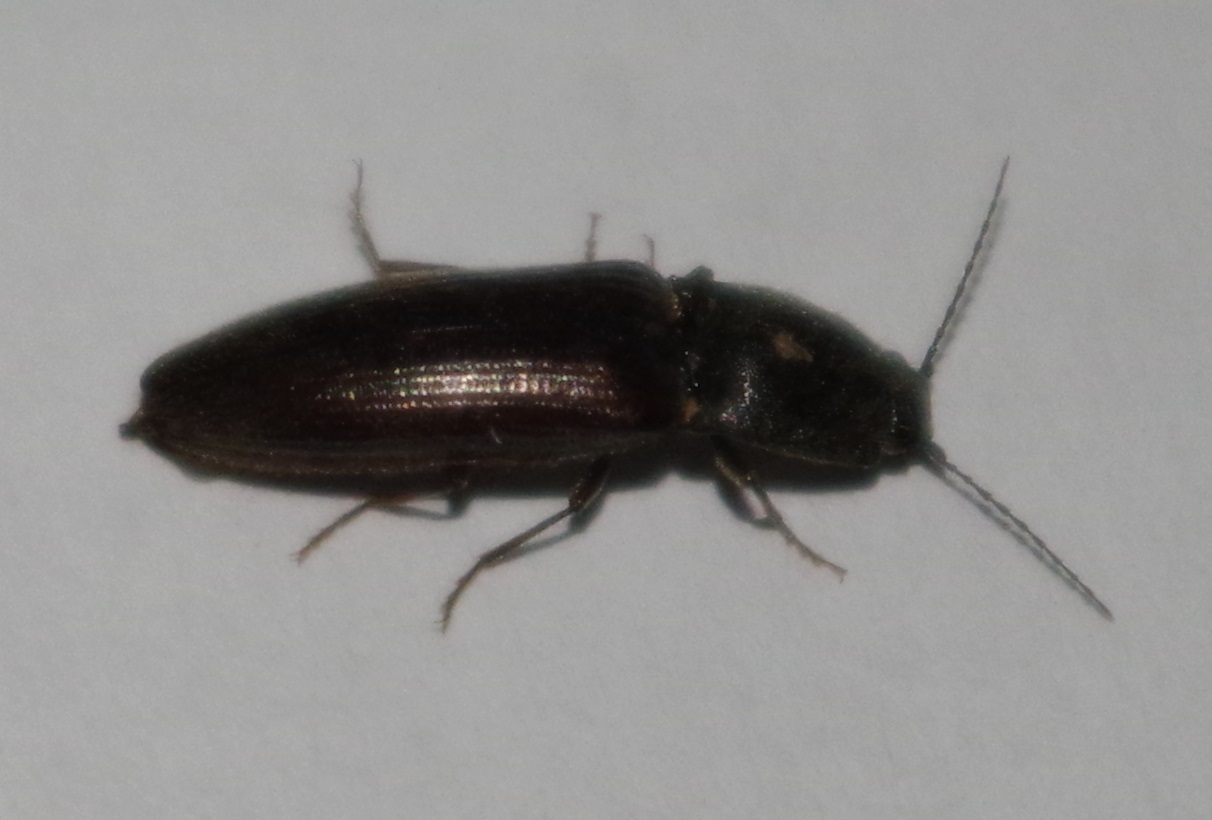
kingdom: Animalia
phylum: Arthropoda
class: Insecta
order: Coleoptera
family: Elateridae
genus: Athous
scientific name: Athous haemorrhoidalis
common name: Red-brown click beetle
